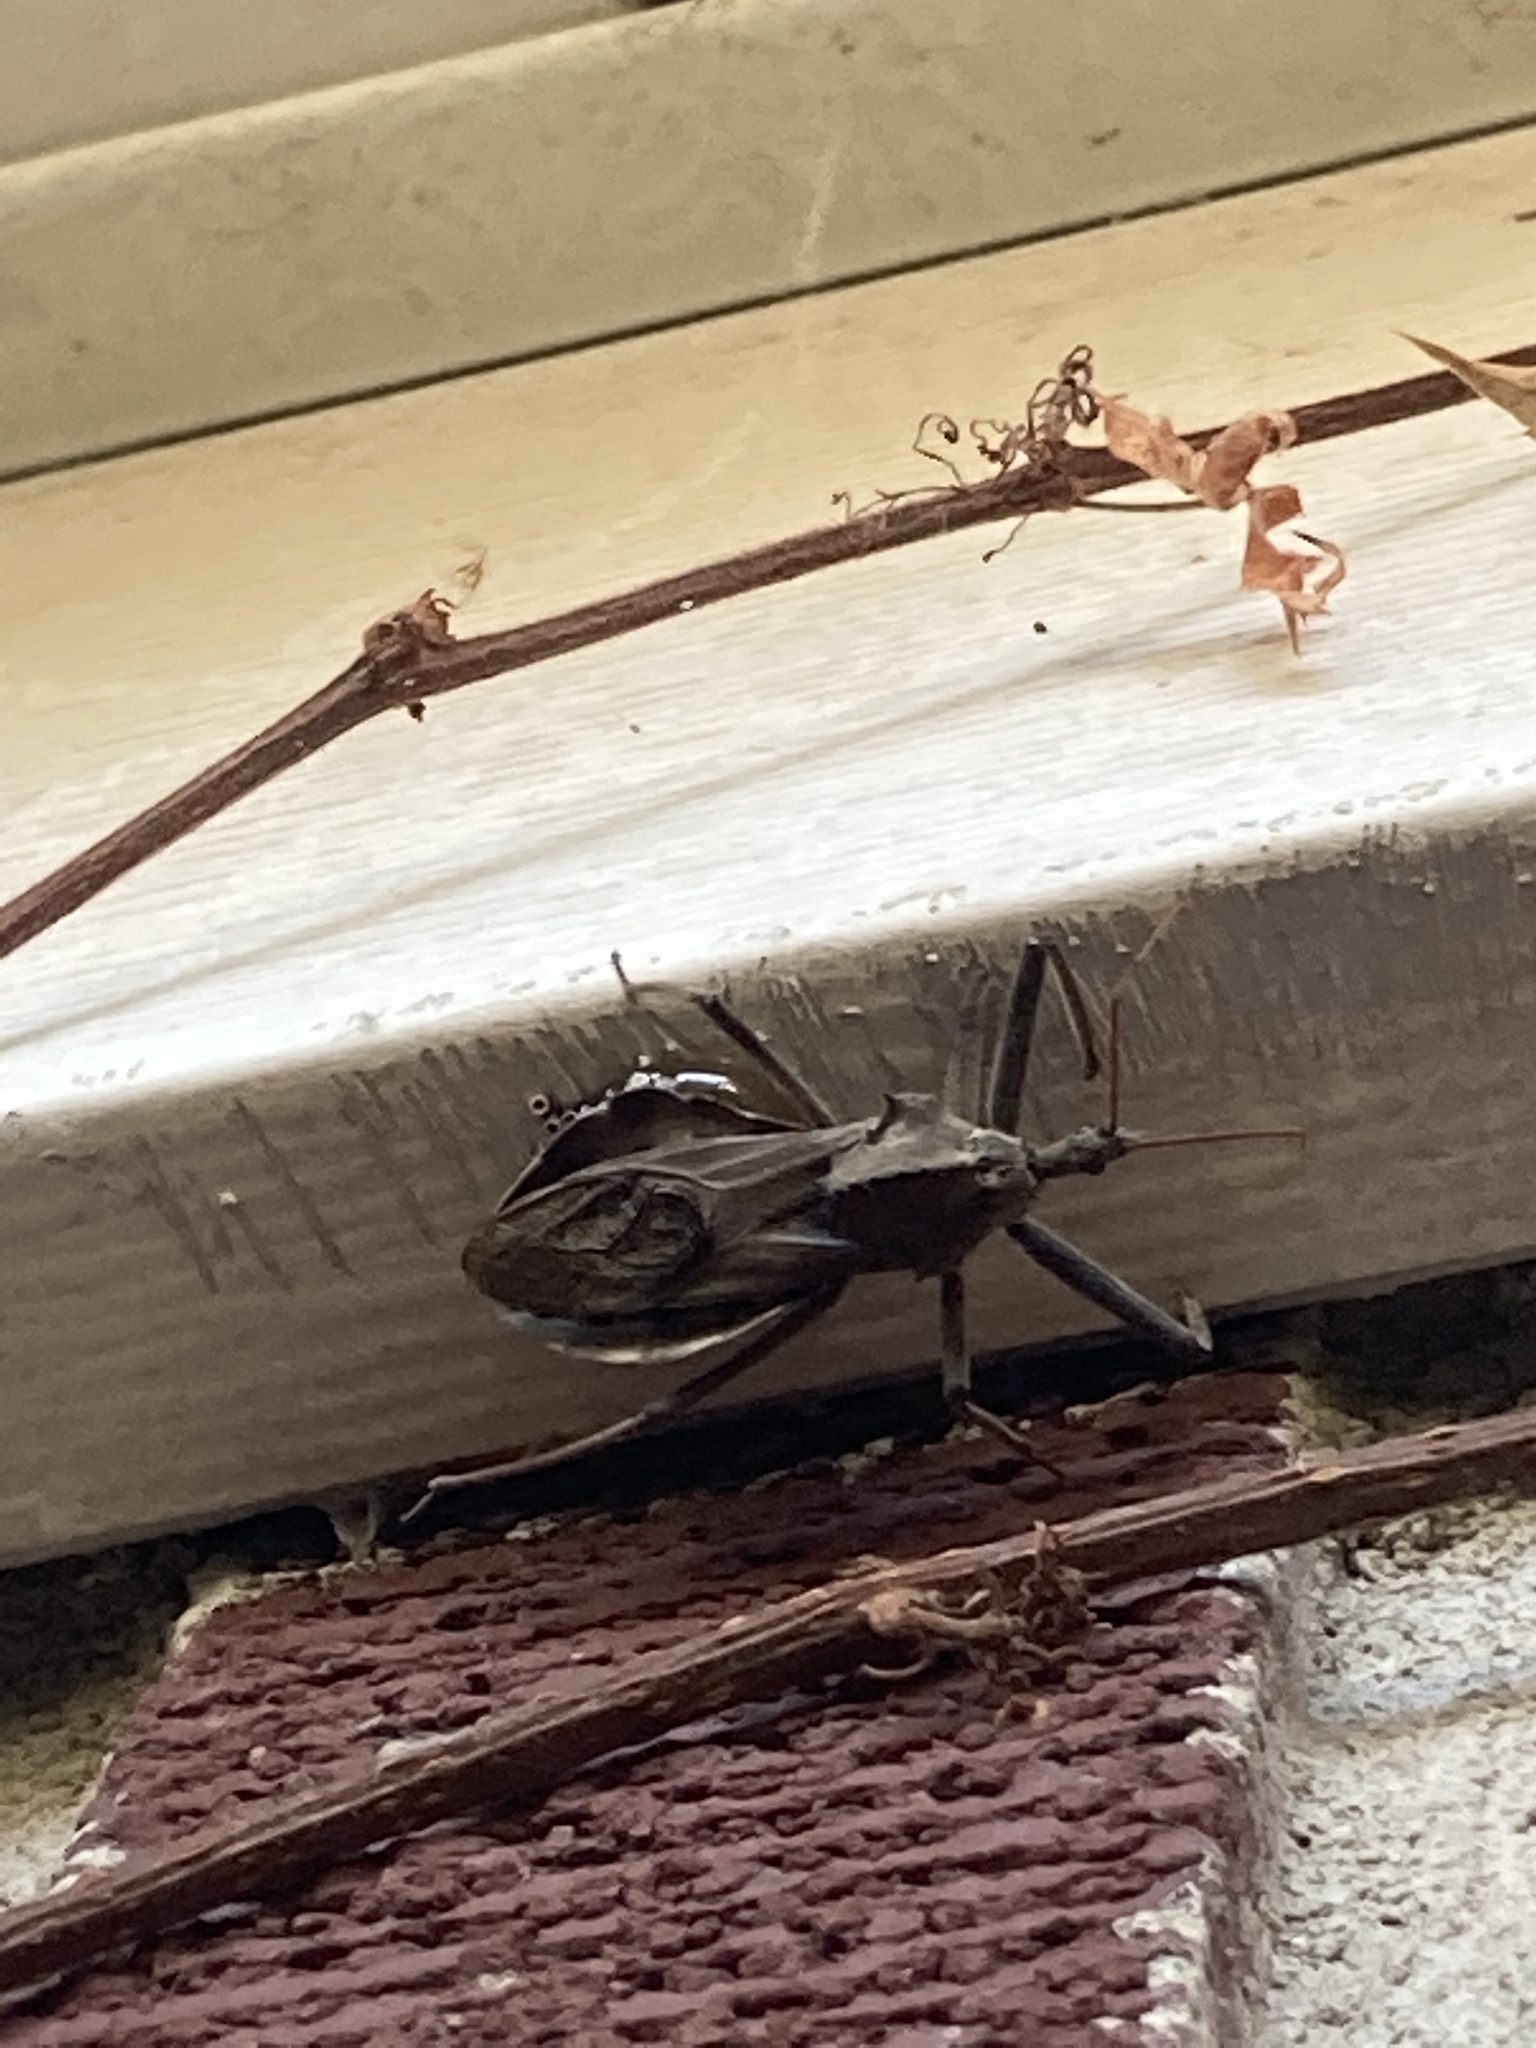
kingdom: Animalia
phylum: Arthropoda
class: Insecta
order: Hemiptera
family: Reduviidae
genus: Arilus
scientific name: Arilus cristatus
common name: North american wheel bug
